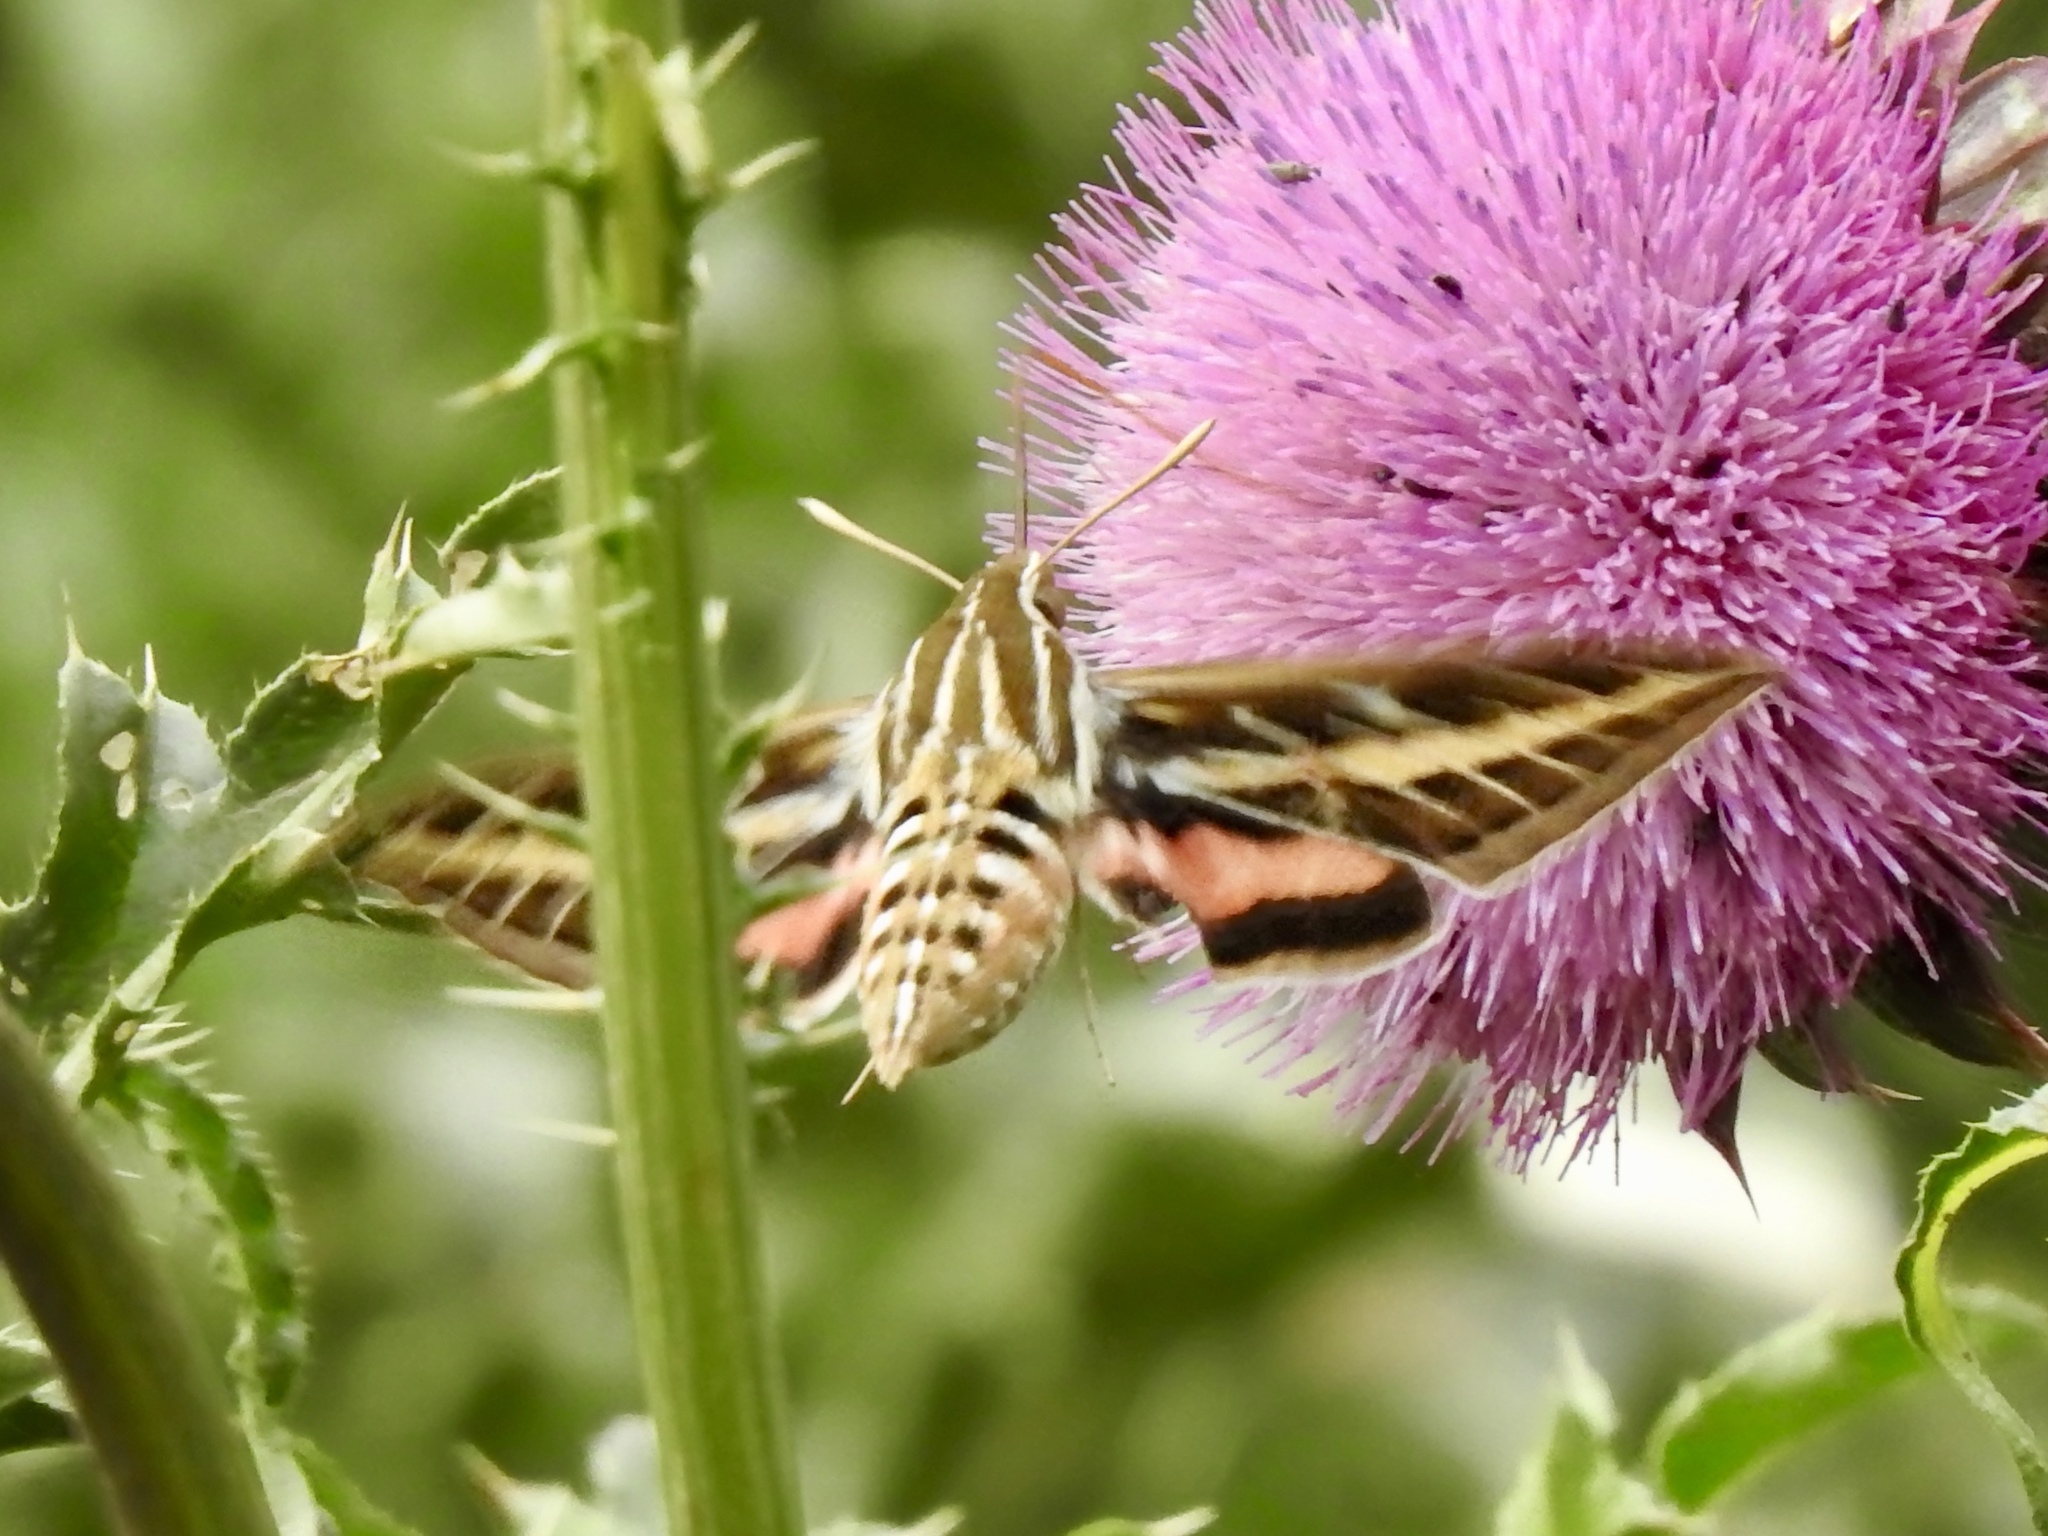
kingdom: Animalia
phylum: Arthropoda
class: Insecta
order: Lepidoptera
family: Sphingidae
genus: Hyles
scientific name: Hyles lineata
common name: White-lined sphinx
